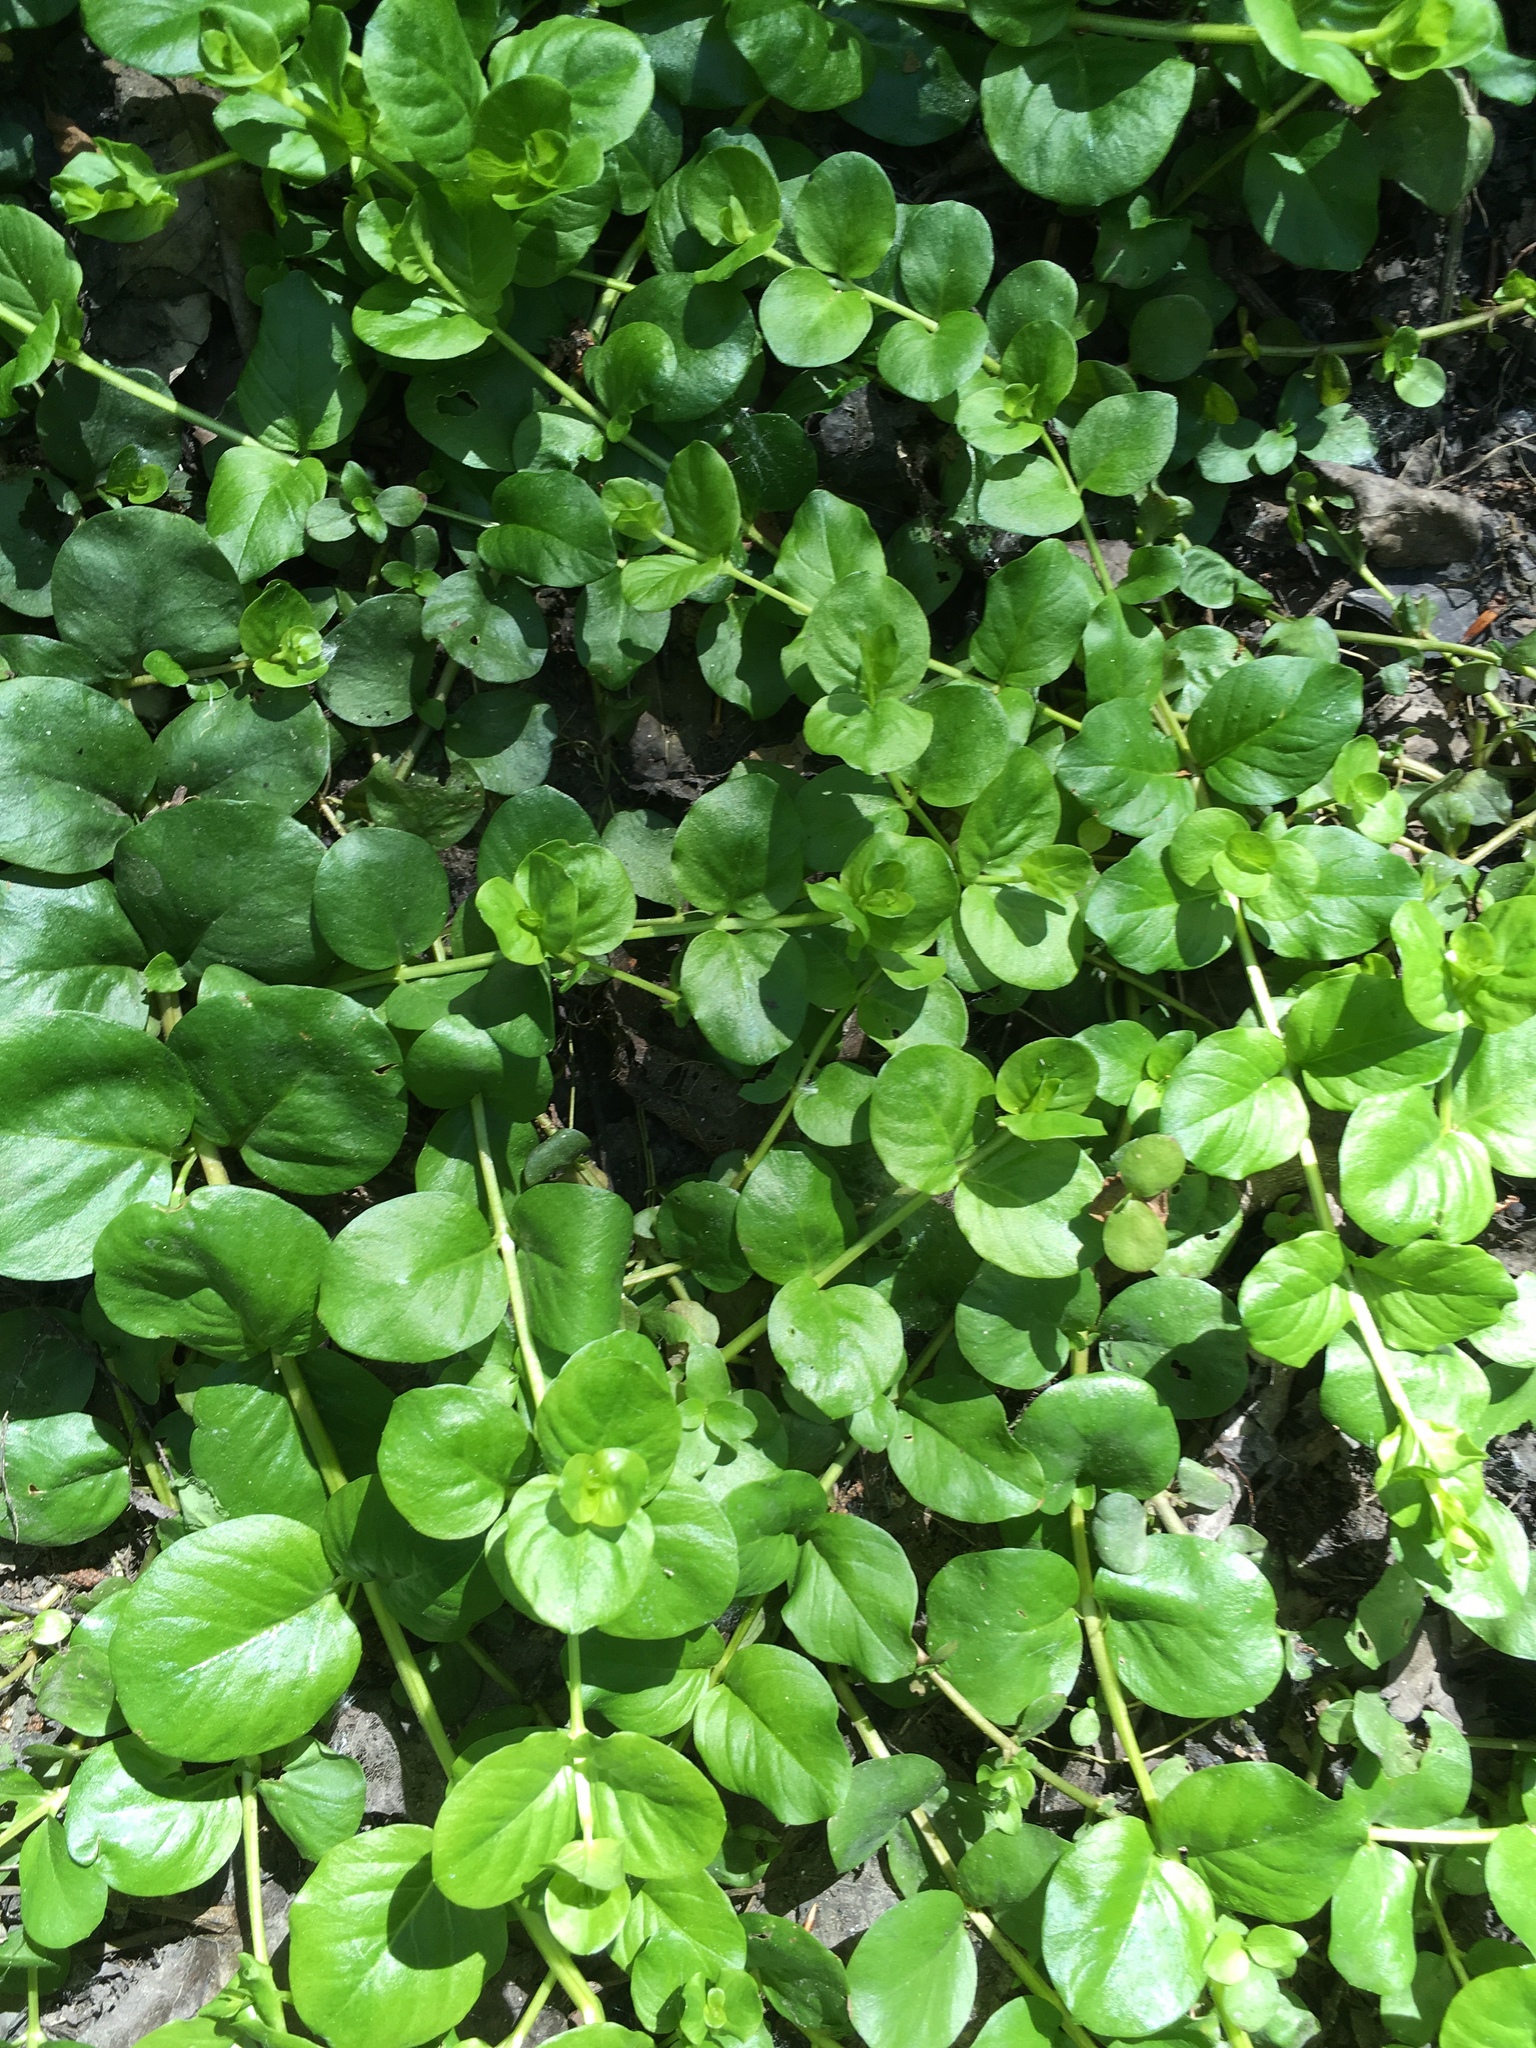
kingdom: Plantae
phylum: Tracheophyta
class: Magnoliopsida
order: Ericales
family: Primulaceae
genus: Lysimachia
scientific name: Lysimachia nummularia
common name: Moneywort
